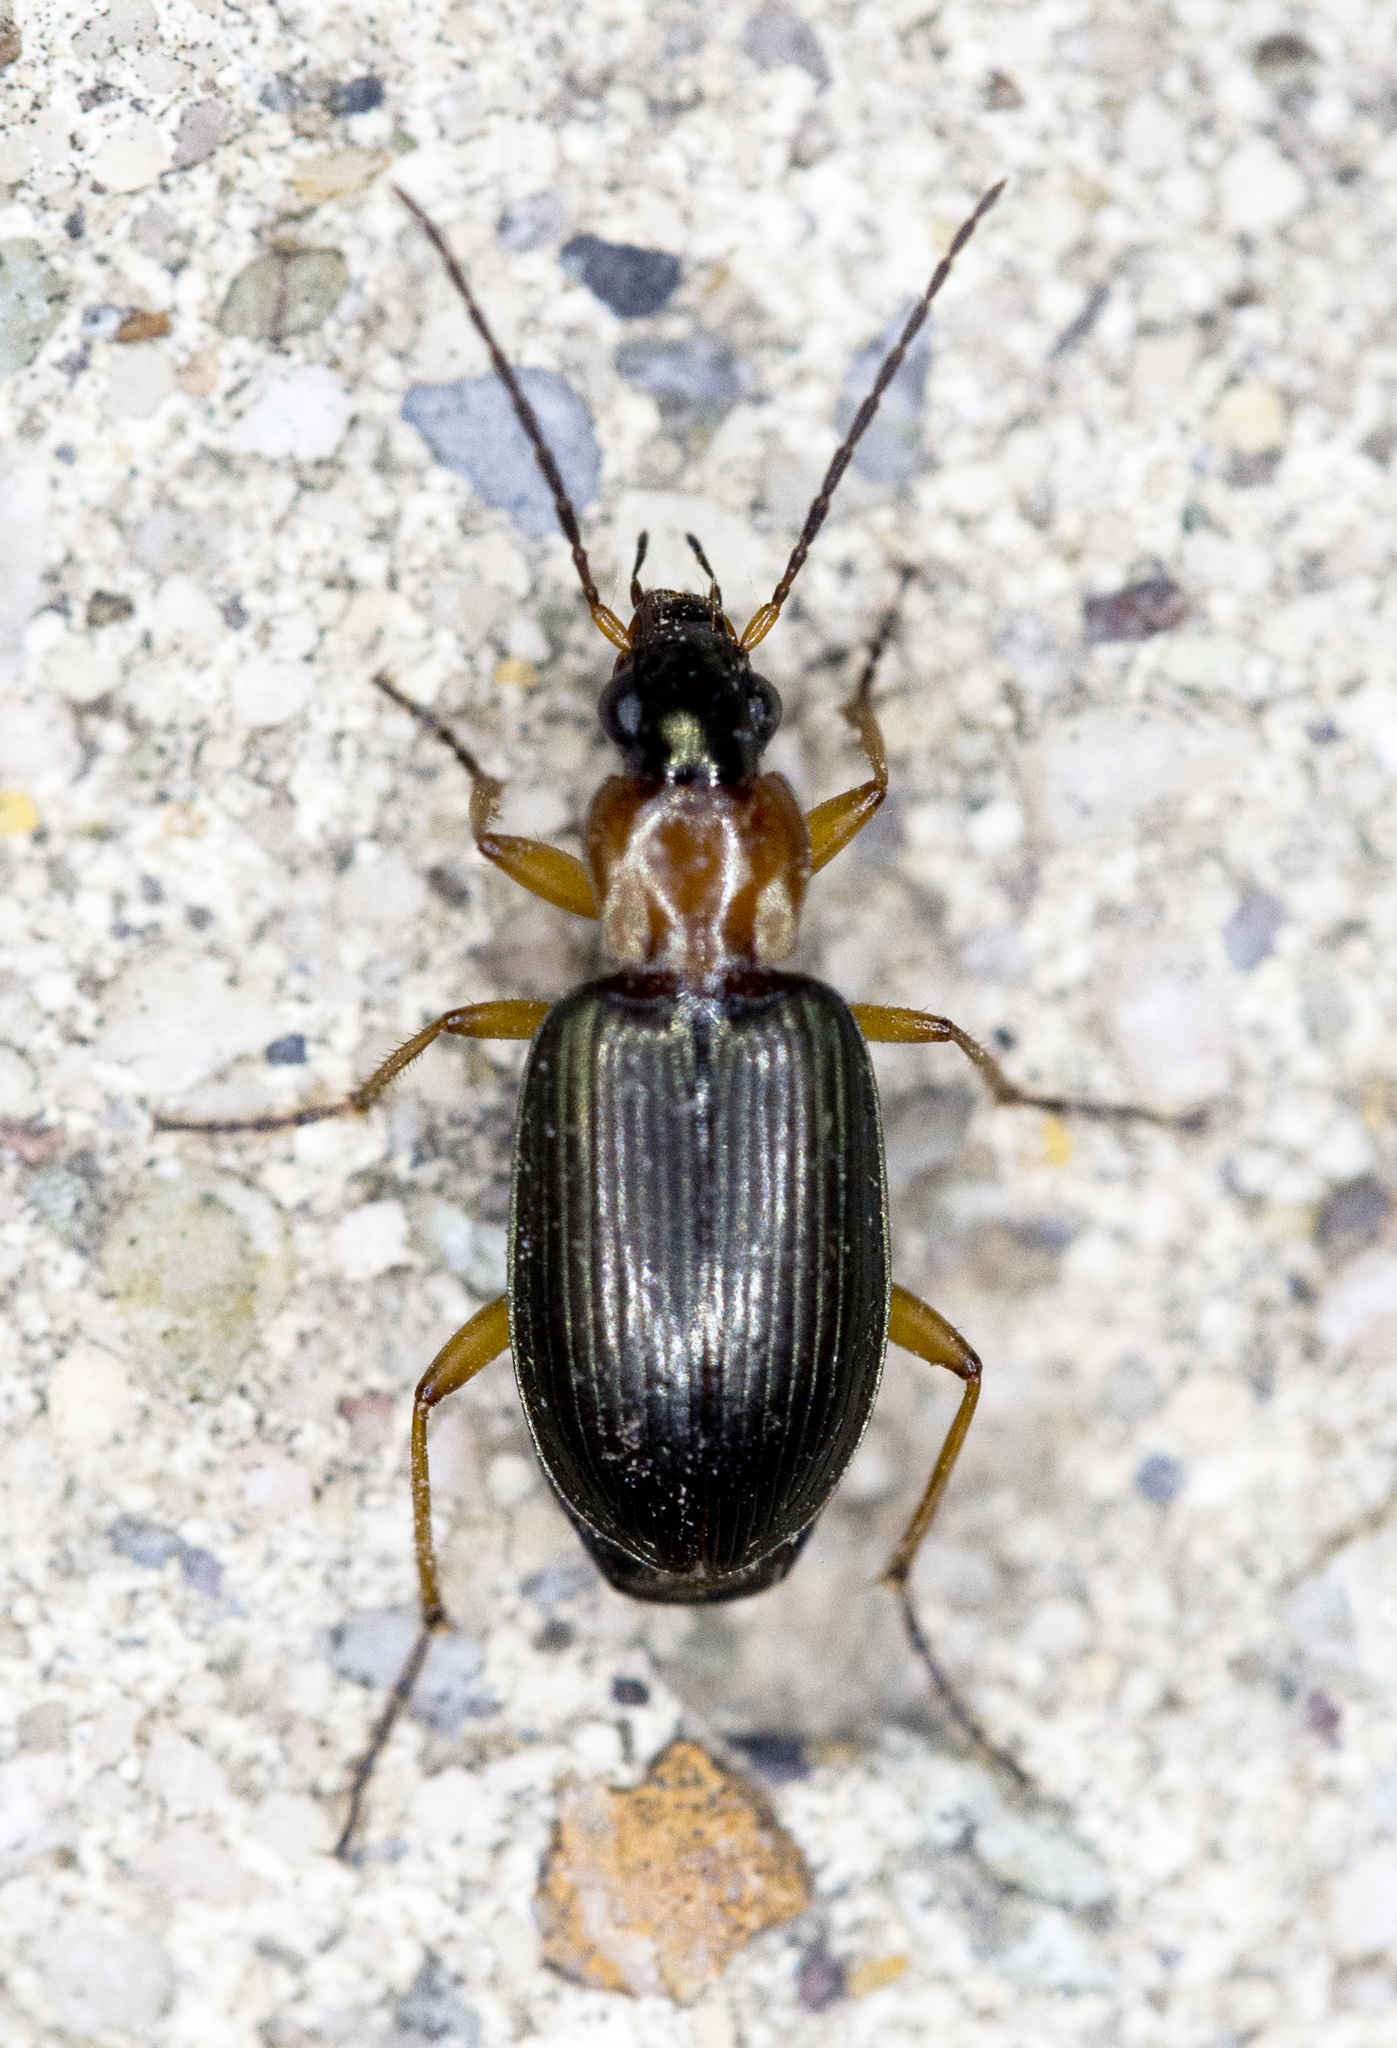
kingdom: Animalia
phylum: Arthropoda
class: Insecta
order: Coleoptera
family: Carabidae
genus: Agonum
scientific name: Agonum decorum
